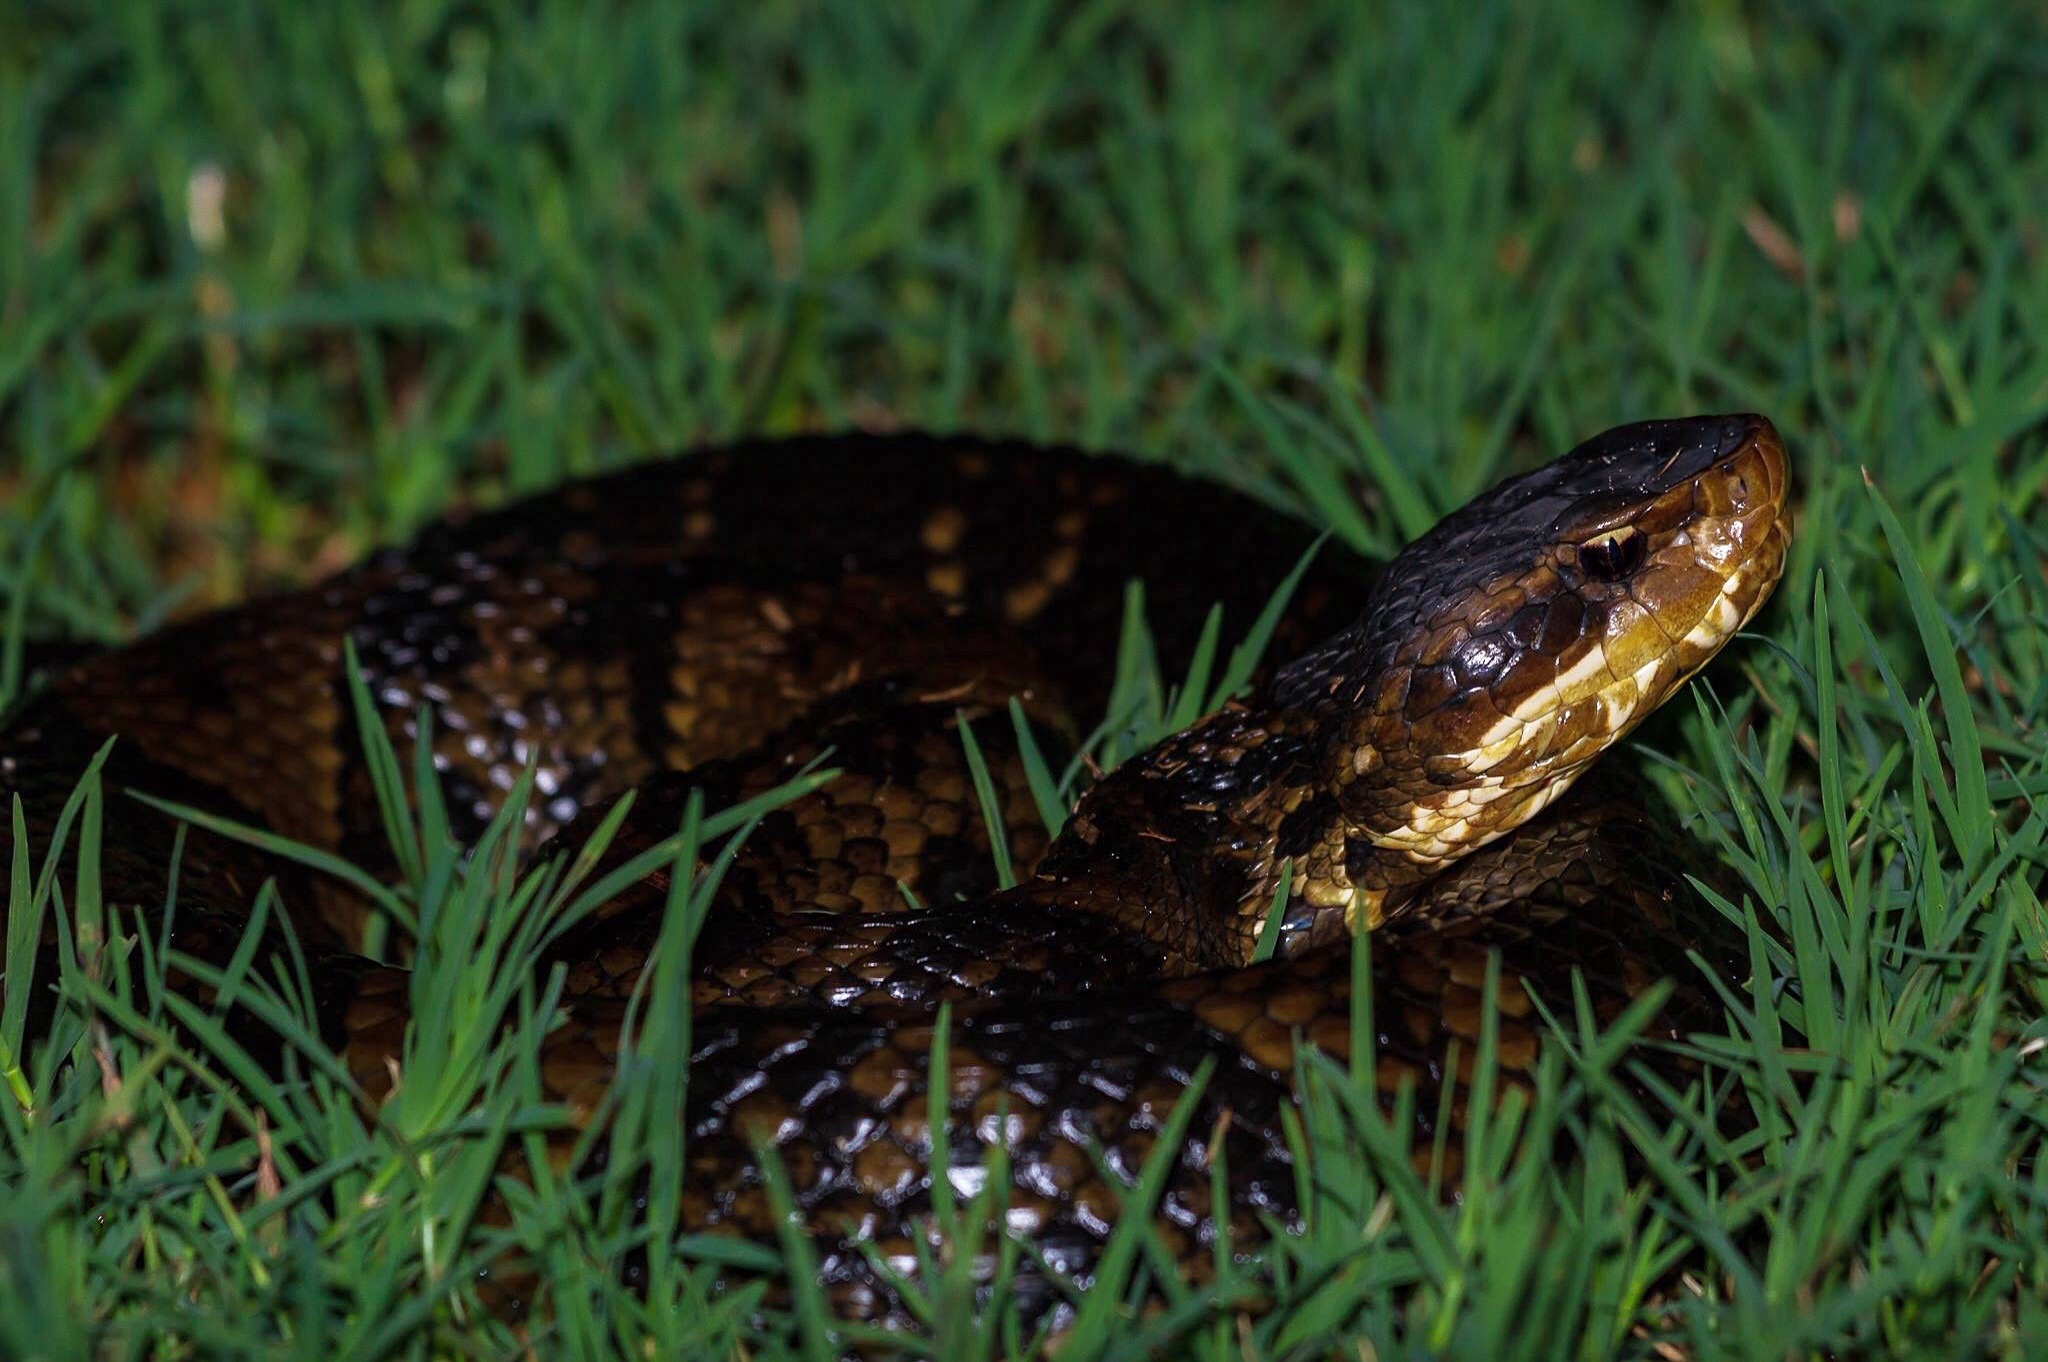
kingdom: Animalia
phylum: Chordata
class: Squamata
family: Viperidae
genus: Agkistrodon
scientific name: Agkistrodon piscivorus
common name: Cottonmouth
